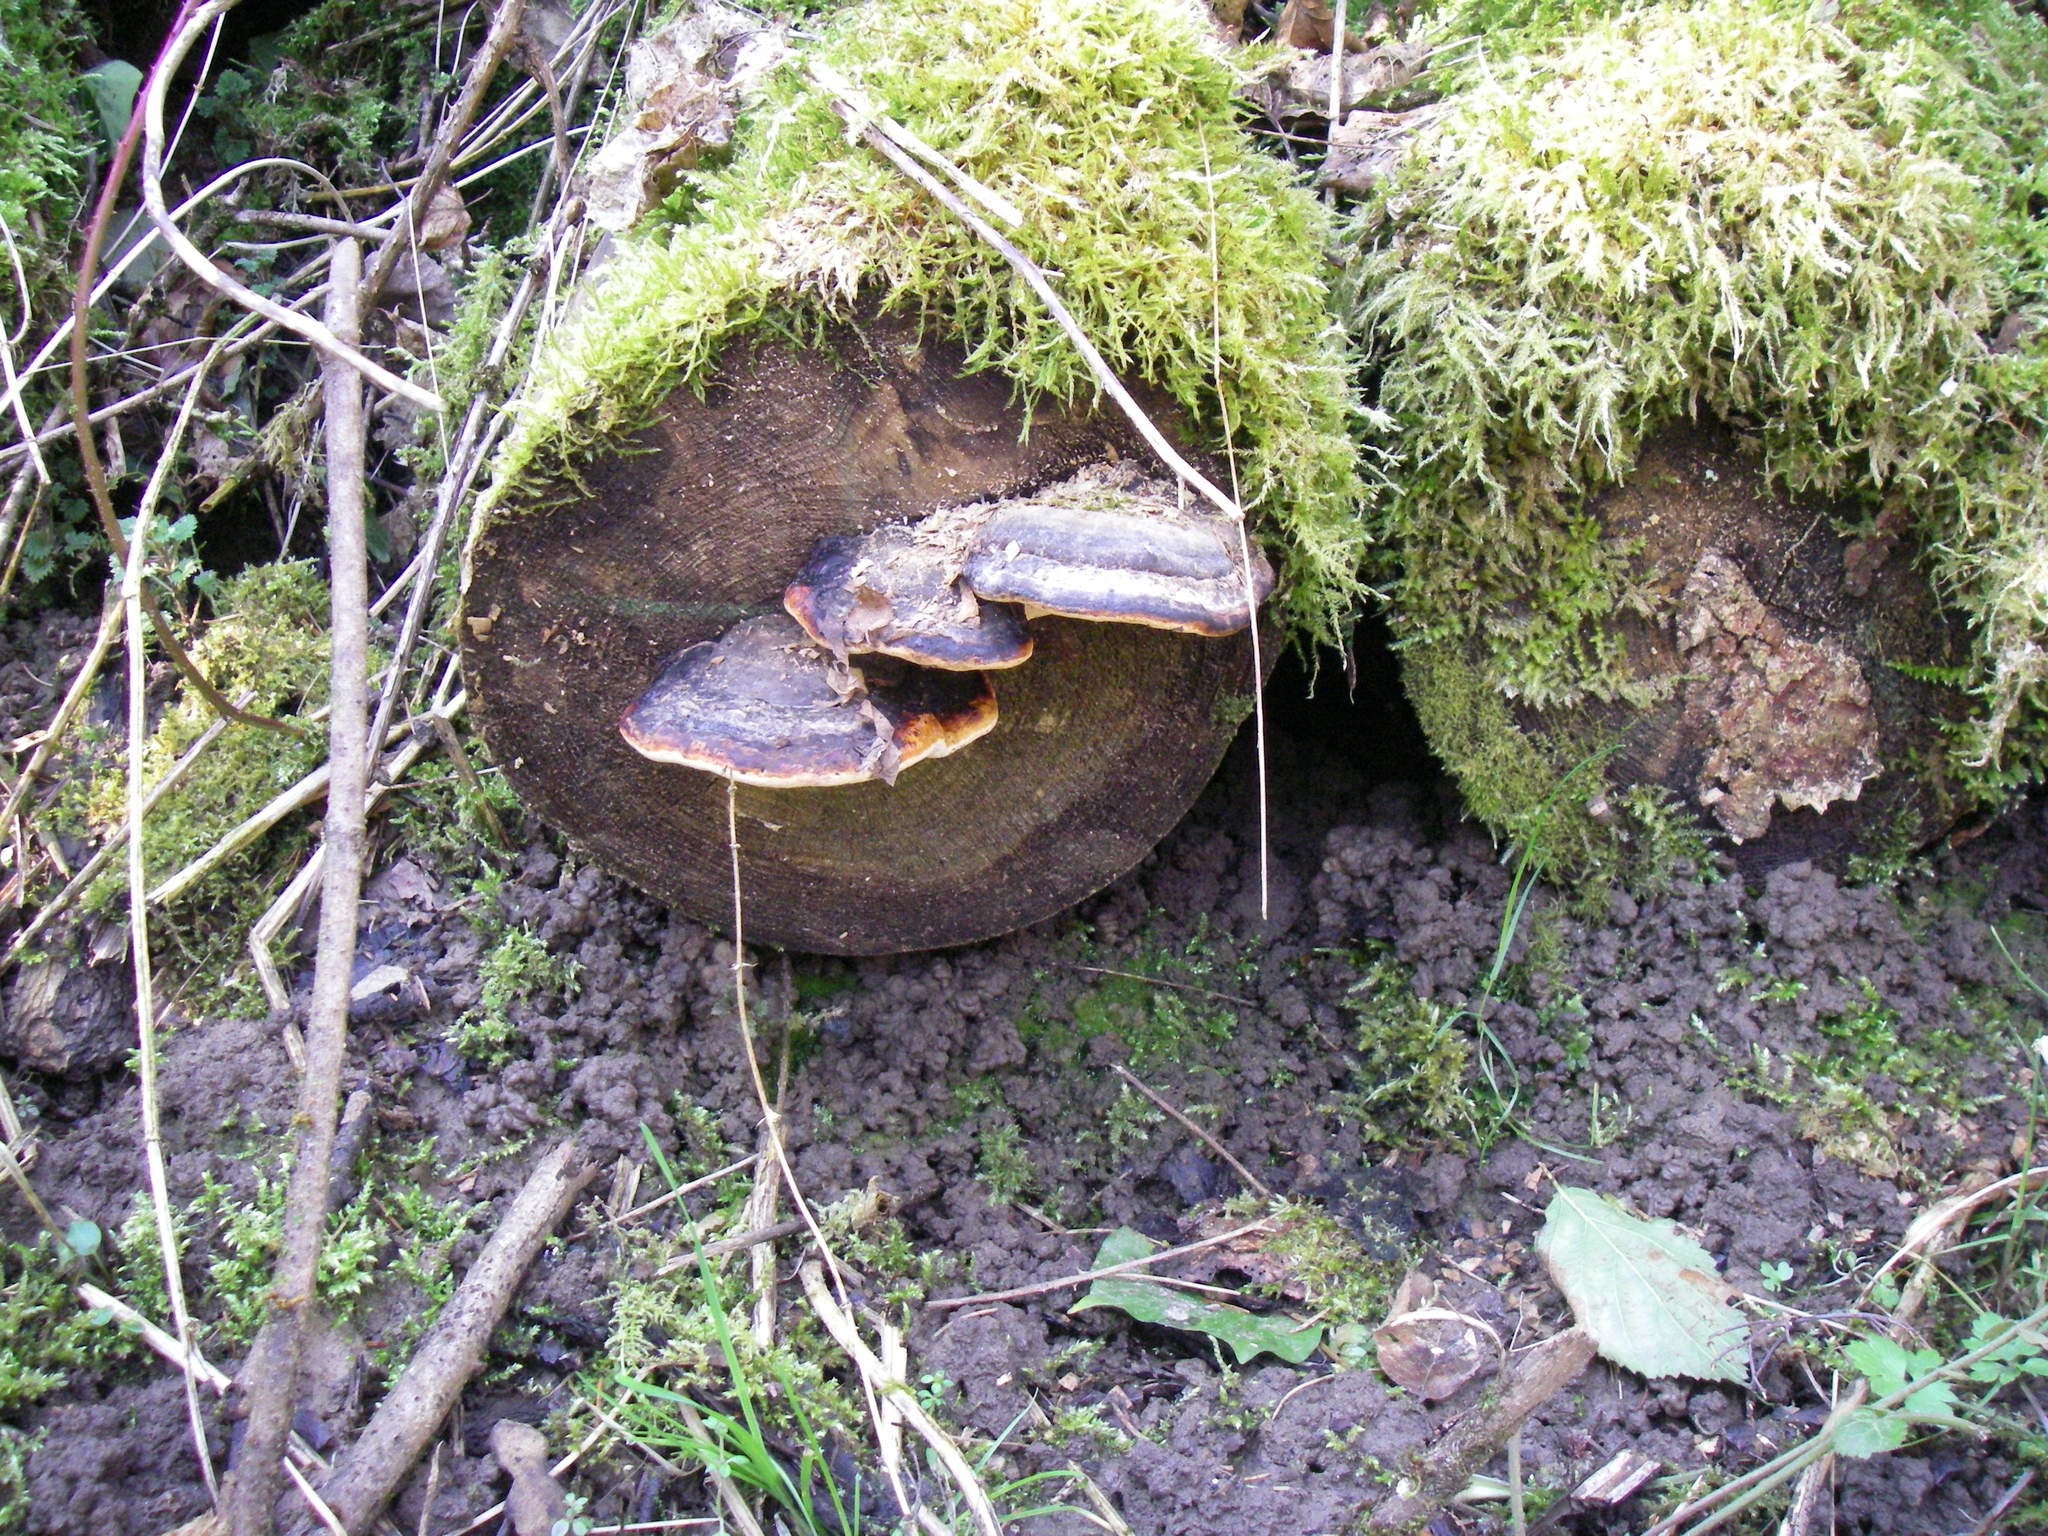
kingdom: Fungi
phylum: Basidiomycota
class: Agaricomycetes
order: Polyporales
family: Fomitopsidaceae
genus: Fomitopsis
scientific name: Fomitopsis pinicola
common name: Red-belted bracket
